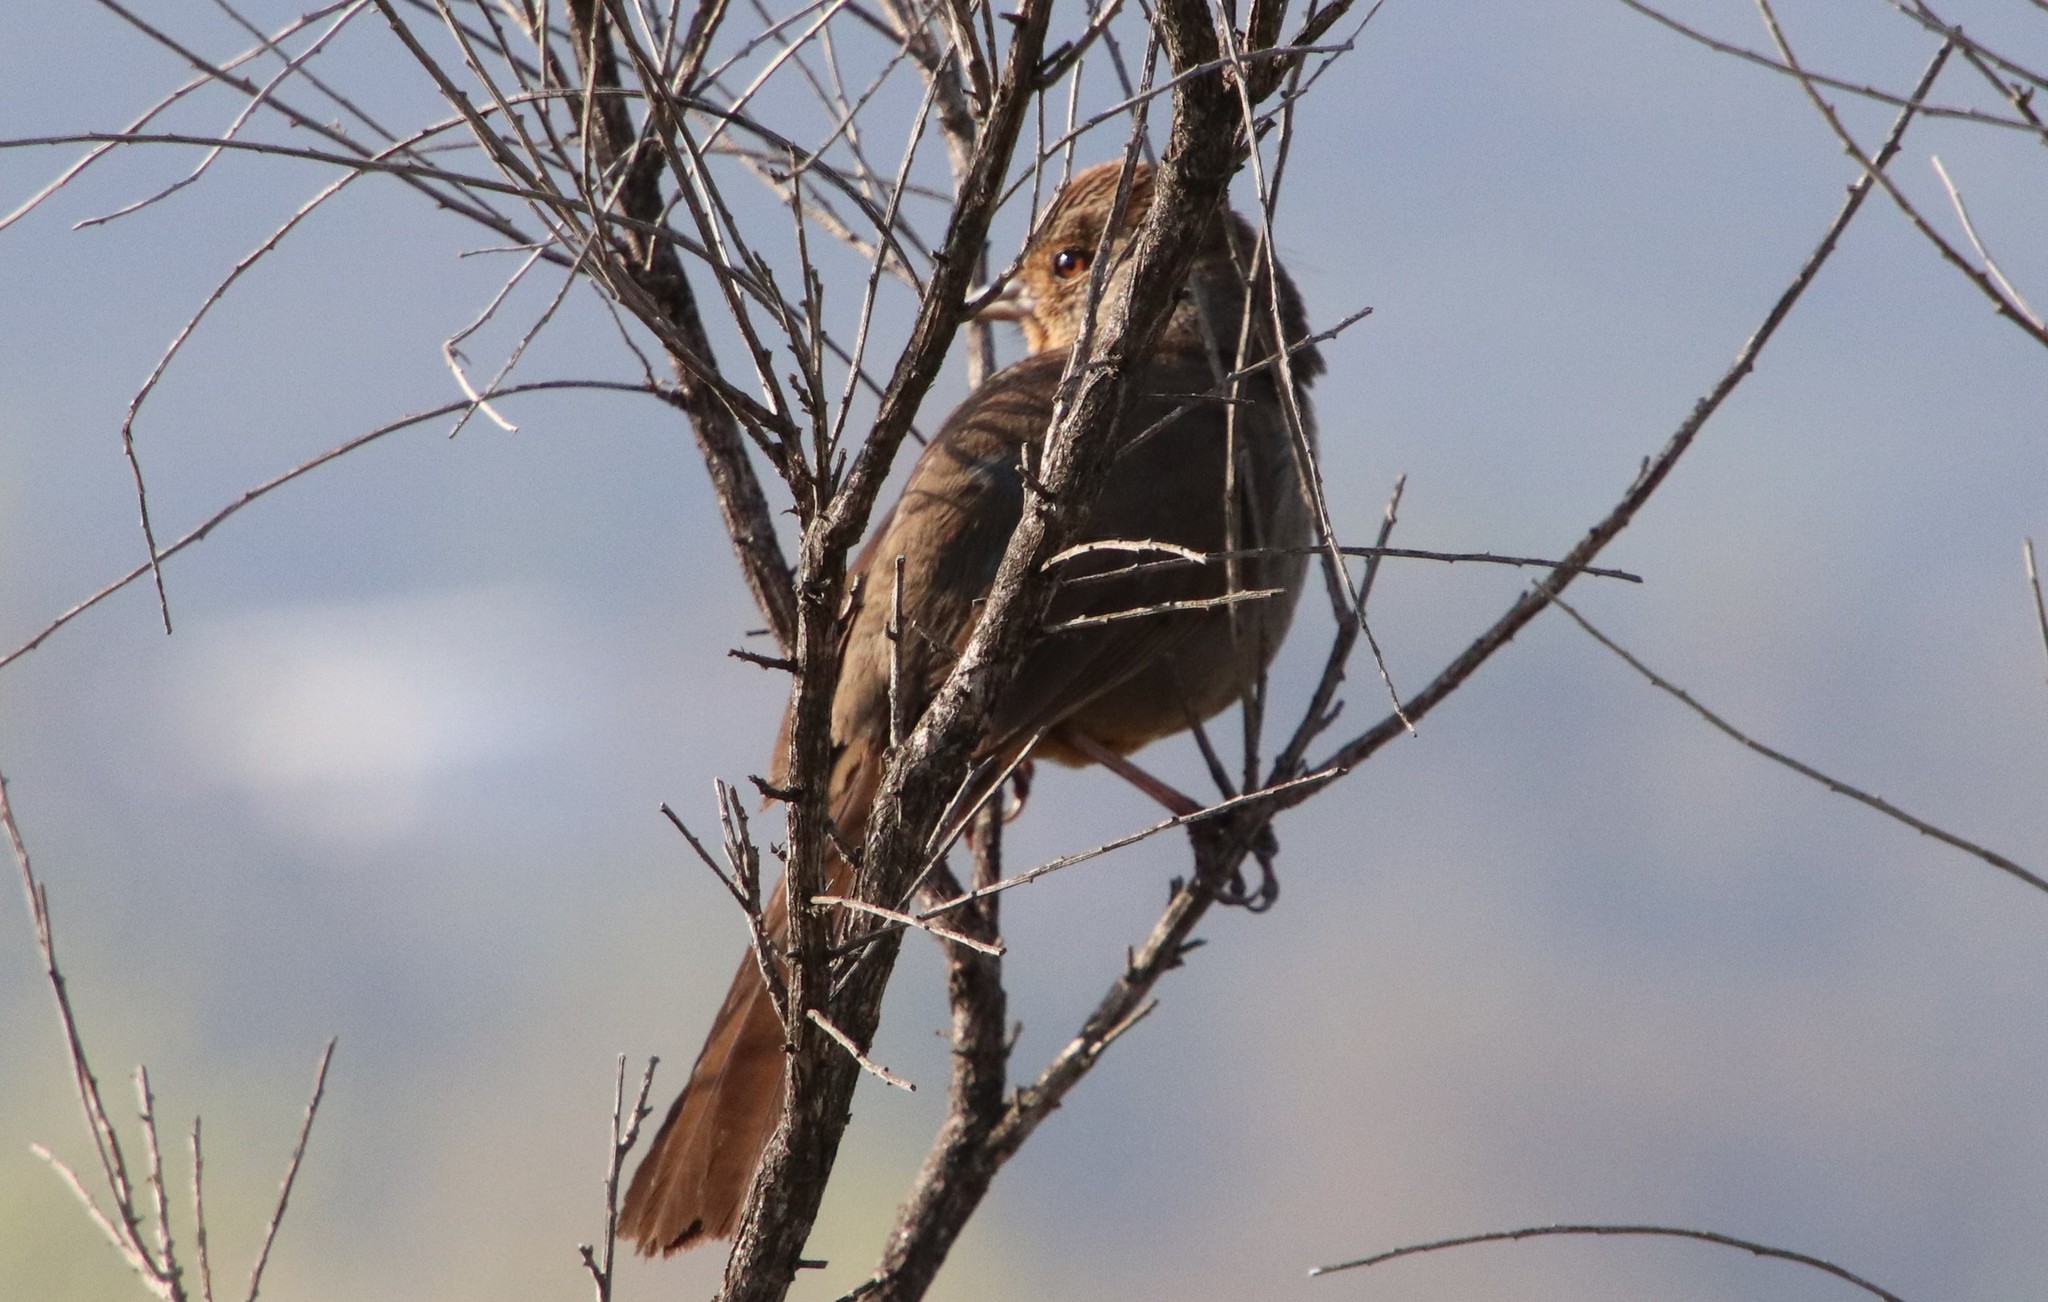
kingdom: Animalia
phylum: Chordata
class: Aves
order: Passeriformes
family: Passerellidae
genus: Melozone
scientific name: Melozone crissalis
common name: California towhee
